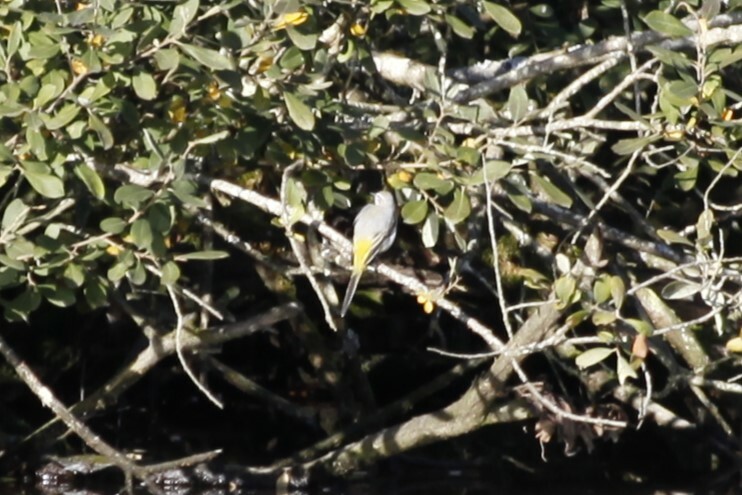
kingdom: Animalia
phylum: Chordata
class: Aves
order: Passeriformes
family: Motacillidae
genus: Motacilla
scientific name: Motacilla cinerea
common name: Grey wagtail
